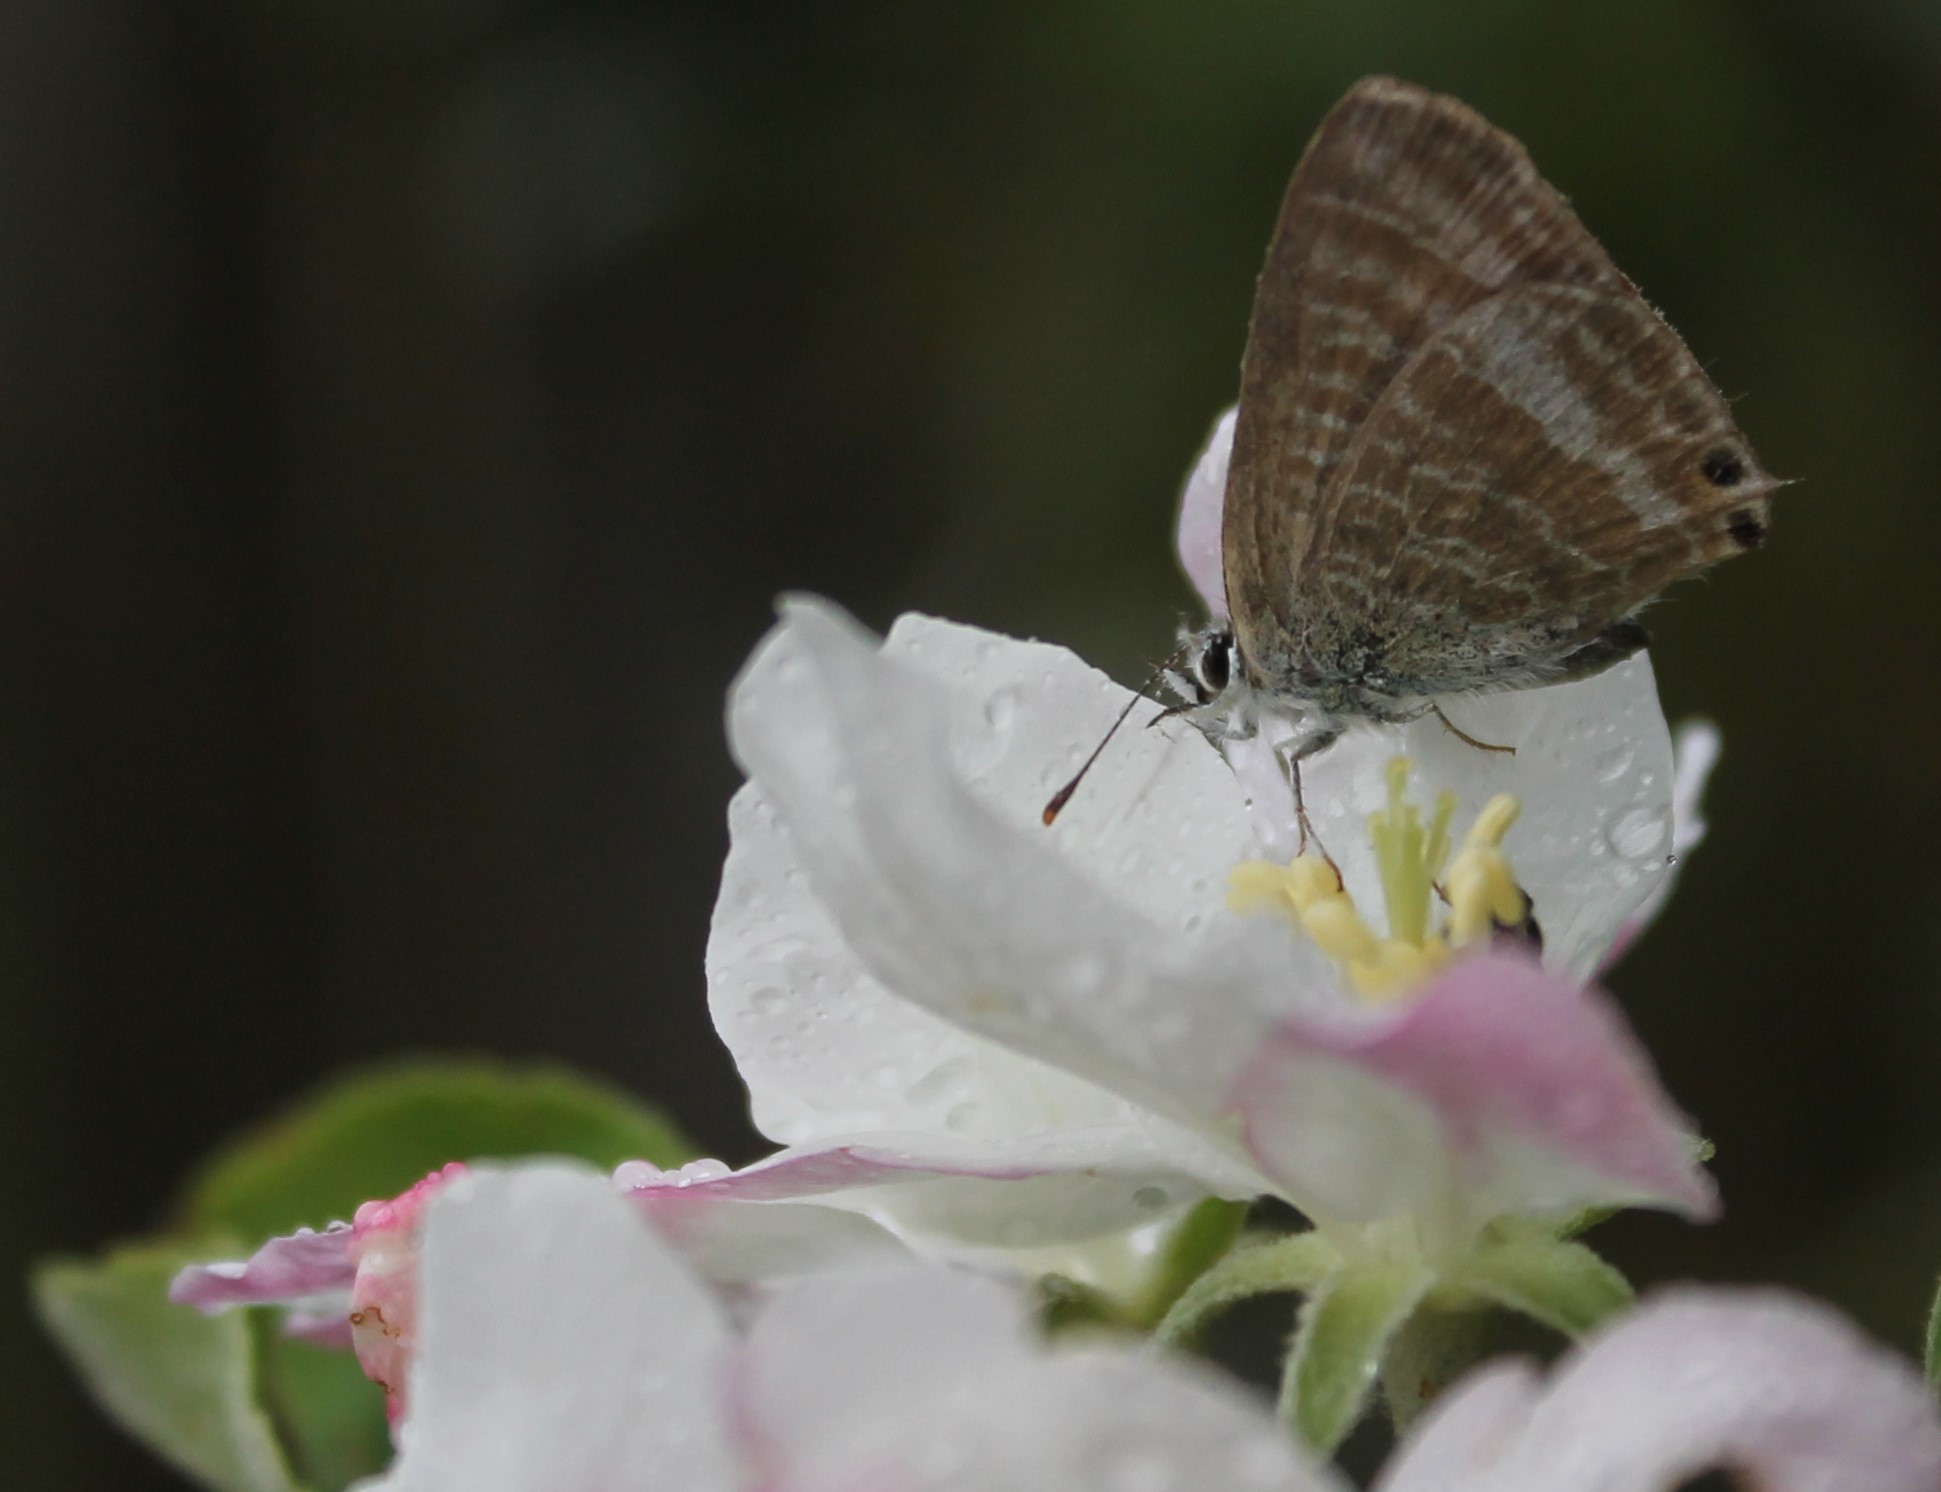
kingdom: Animalia
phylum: Arthropoda
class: Insecta
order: Lepidoptera
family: Lycaenidae
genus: Lampides
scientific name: Lampides boeticus
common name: Long-tailed blue
